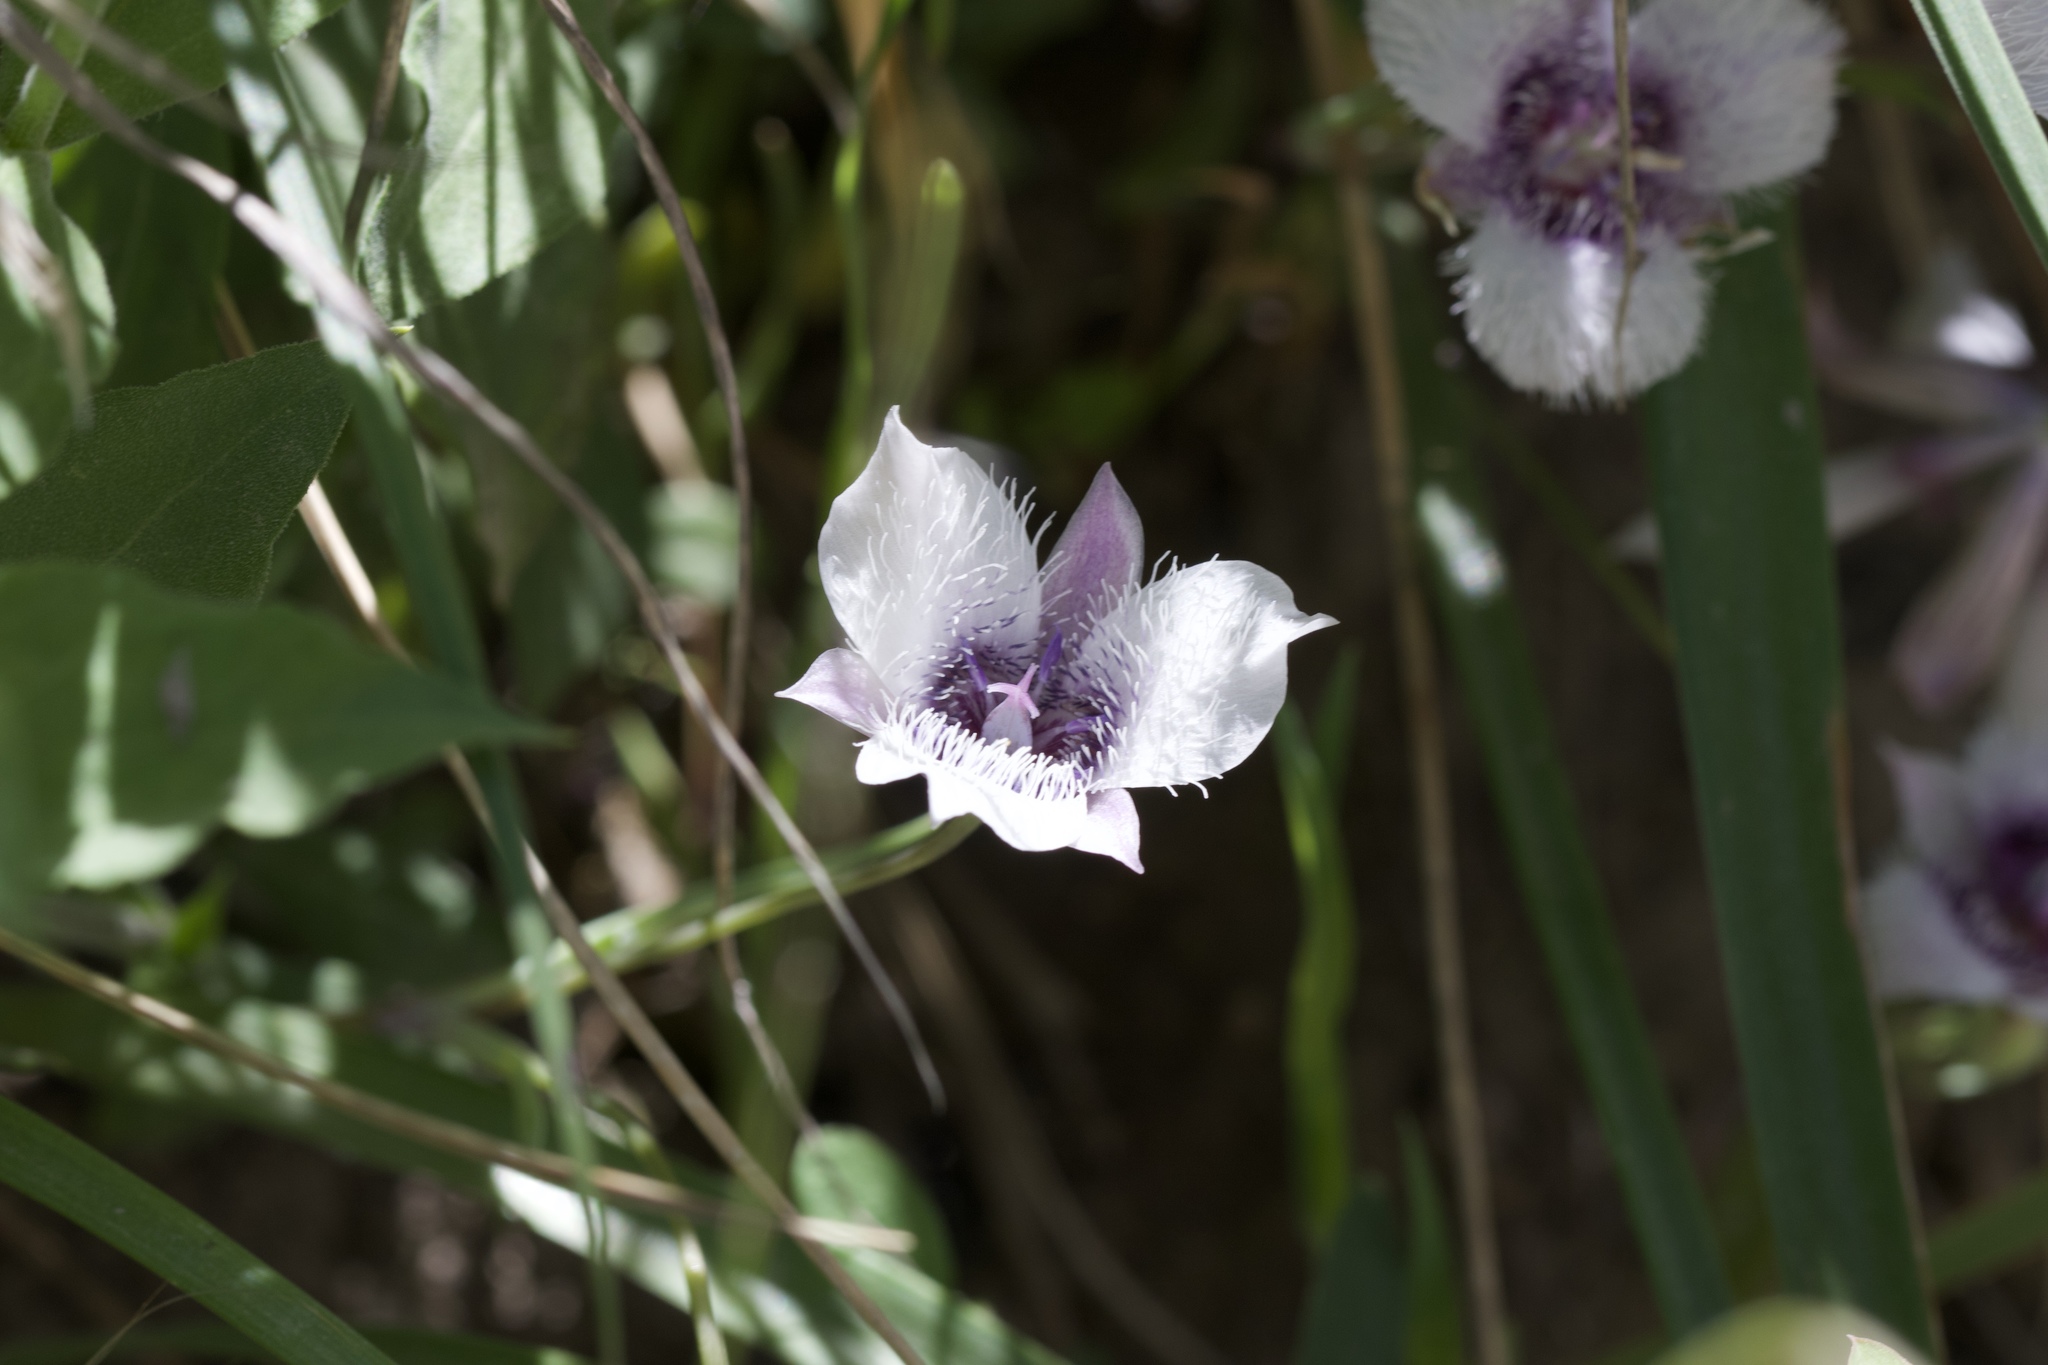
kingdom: Plantae
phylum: Tracheophyta
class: Liliopsida
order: Liliales
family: Liliaceae
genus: Calochortus
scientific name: Calochortus tolmiei
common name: Pussy-ears
